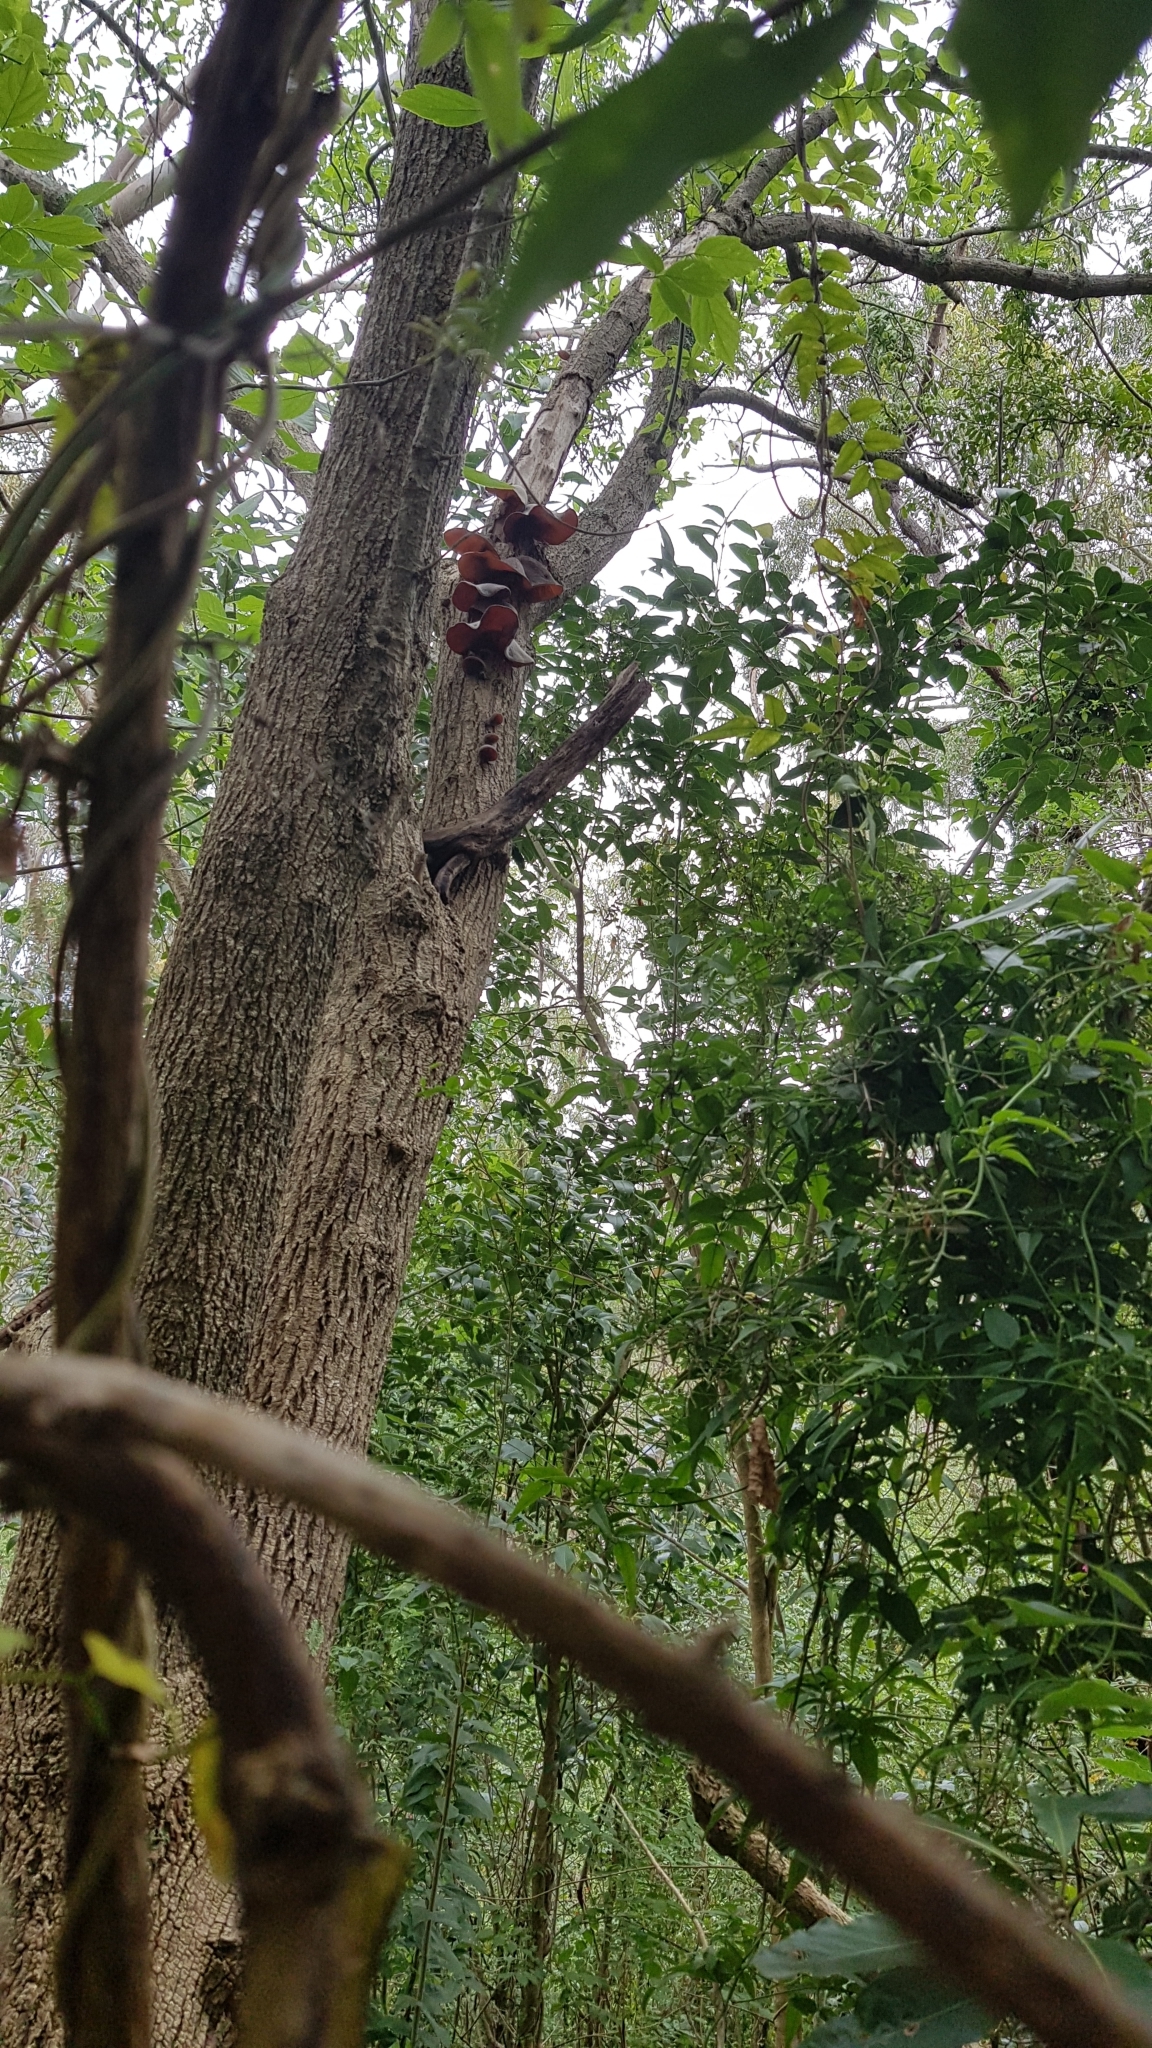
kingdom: Fungi
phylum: Basidiomycota
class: Agaricomycetes
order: Auriculariales
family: Auriculariaceae
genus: Auricularia
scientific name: Auricularia cornea
